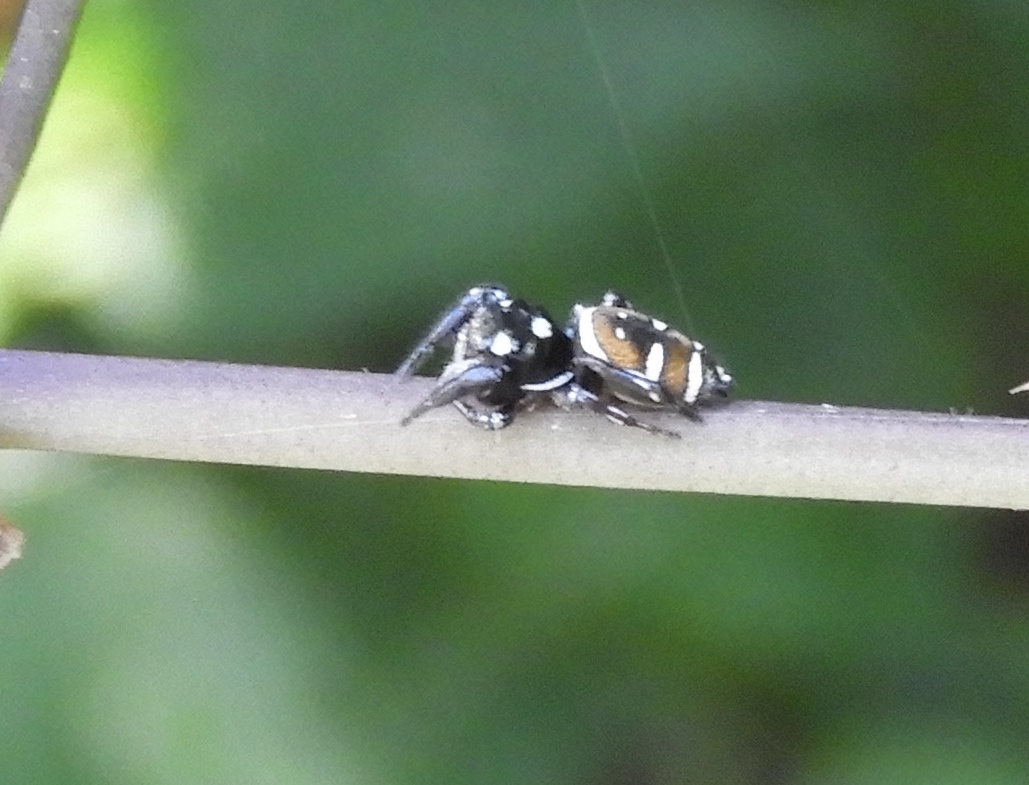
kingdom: Animalia
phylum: Arthropoda
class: Arachnida
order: Araneae
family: Salticidae
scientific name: Salticidae
